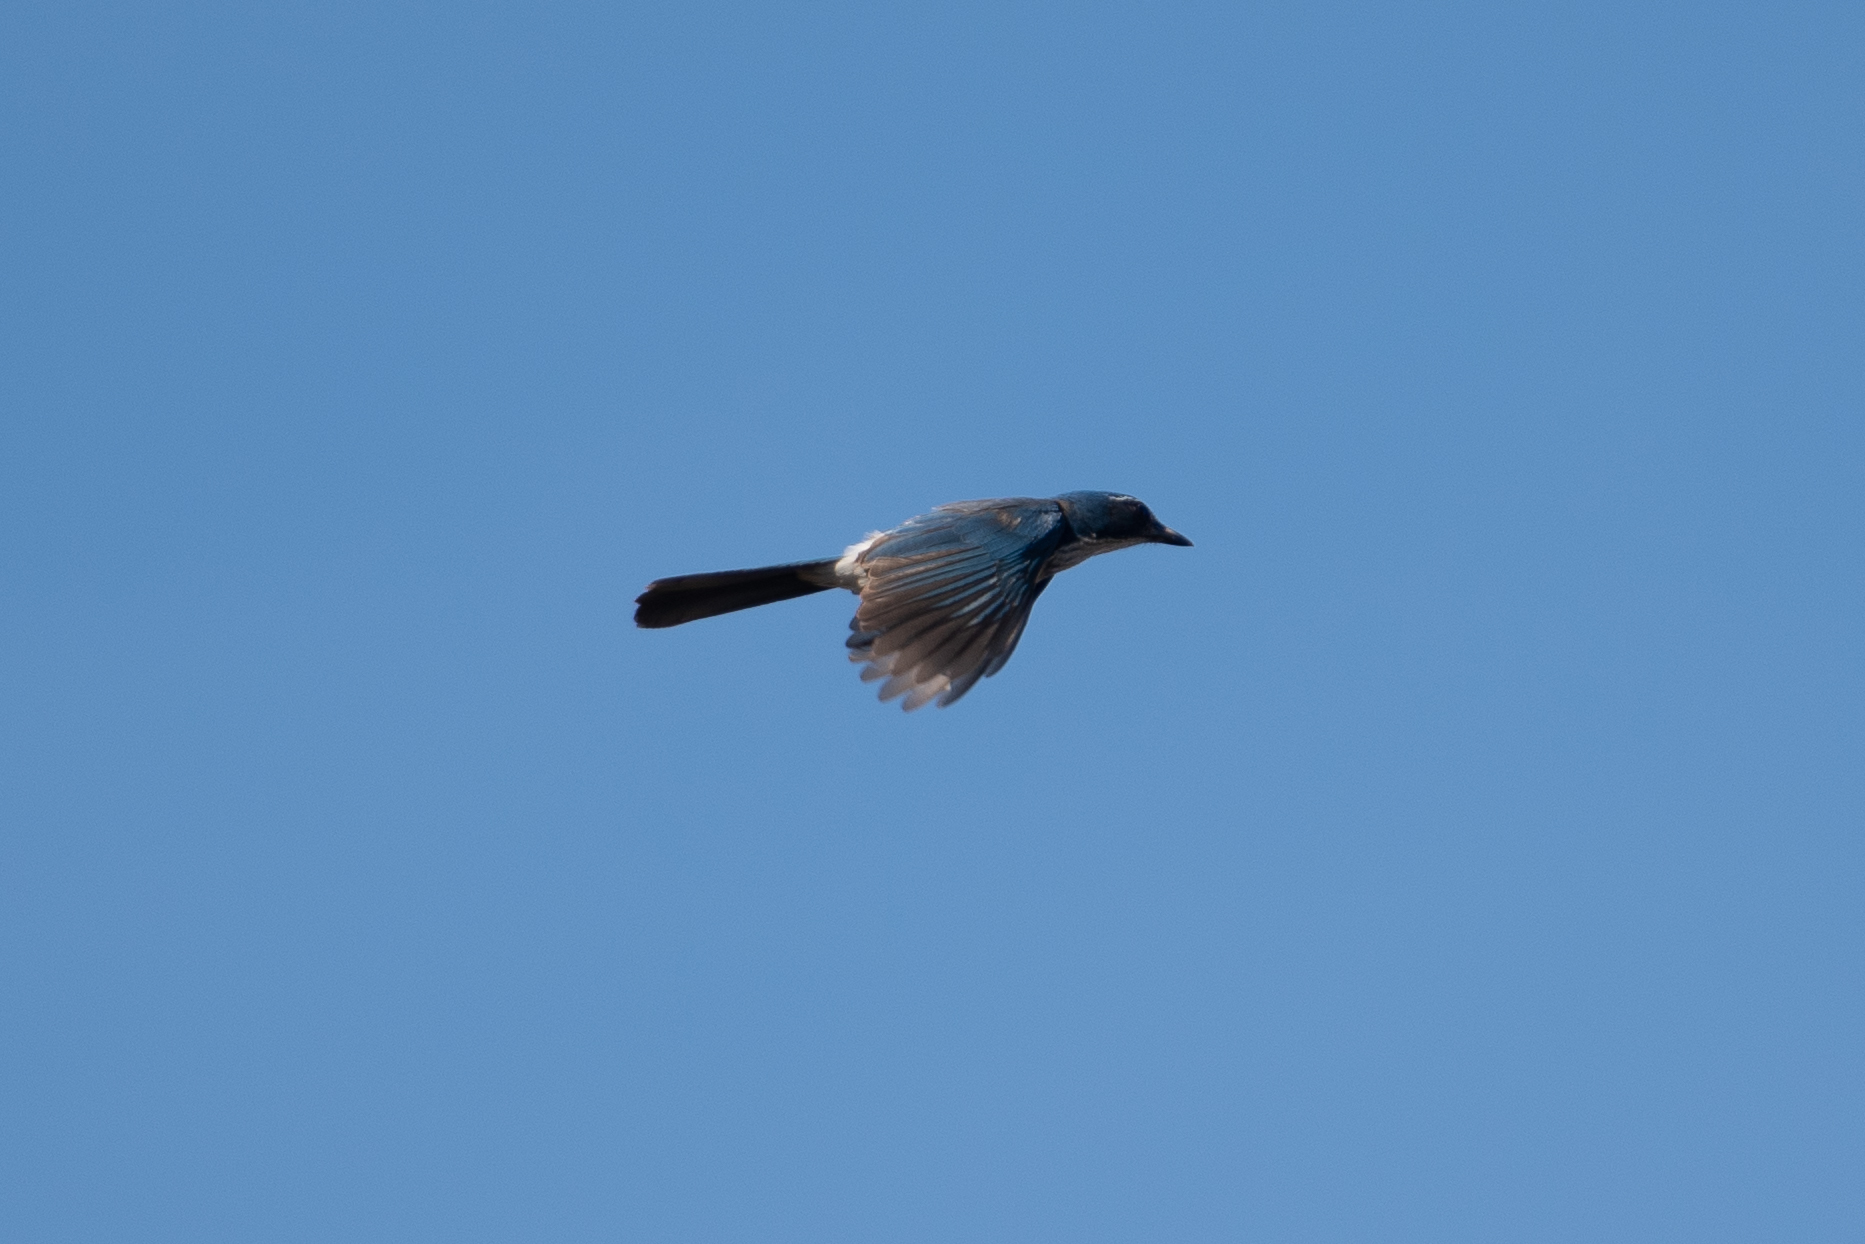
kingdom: Animalia
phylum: Chordata
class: Aves
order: Passeriformes
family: Corvidae
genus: Aphelocoma
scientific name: Aphelocoma californica
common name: California scrub-jay
